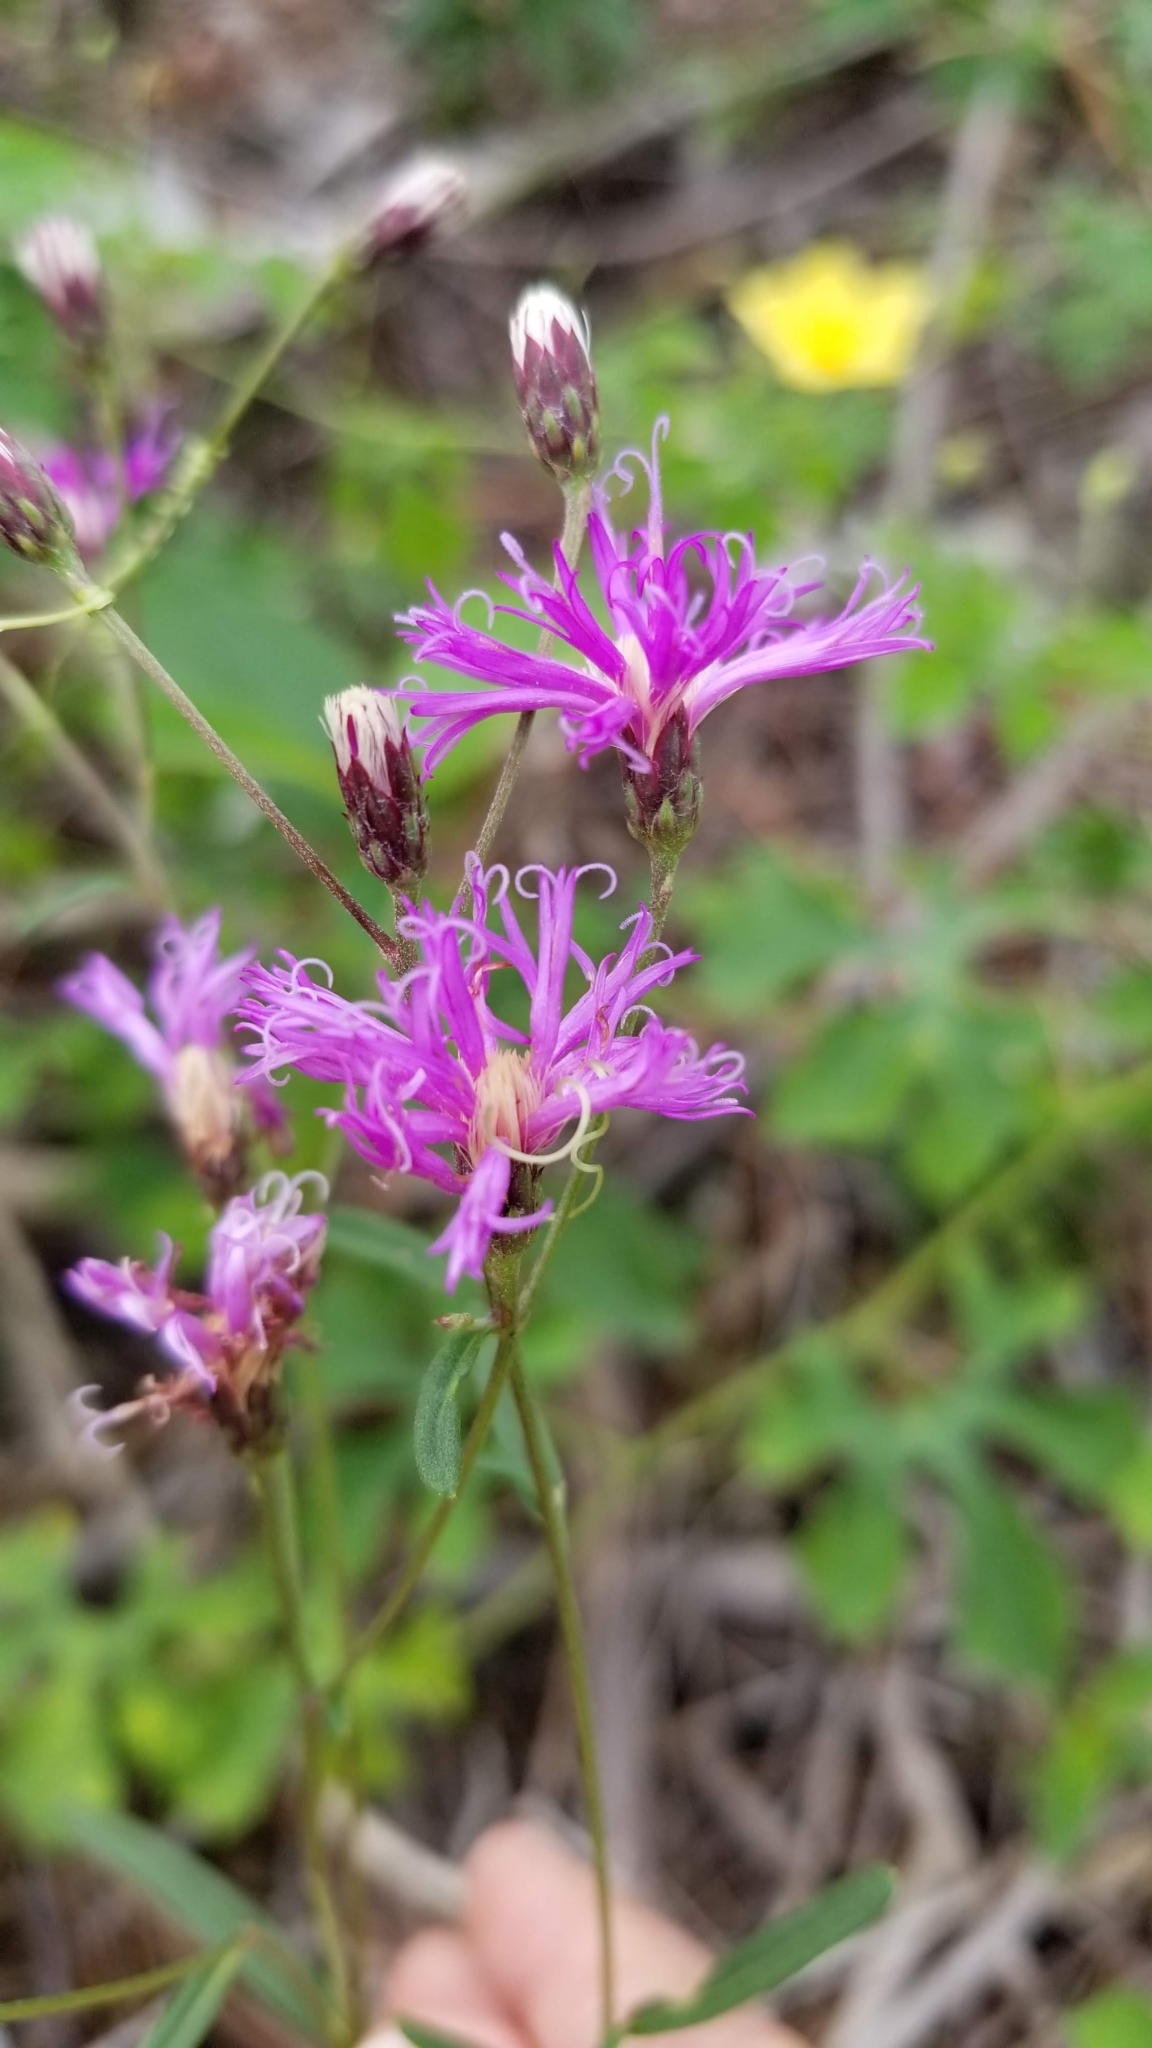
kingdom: Plantae
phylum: Tracheophyta
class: Magnoliopsida
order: Asterales
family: Asteraceae
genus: Vernonia
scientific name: Vernonia blodgettii
